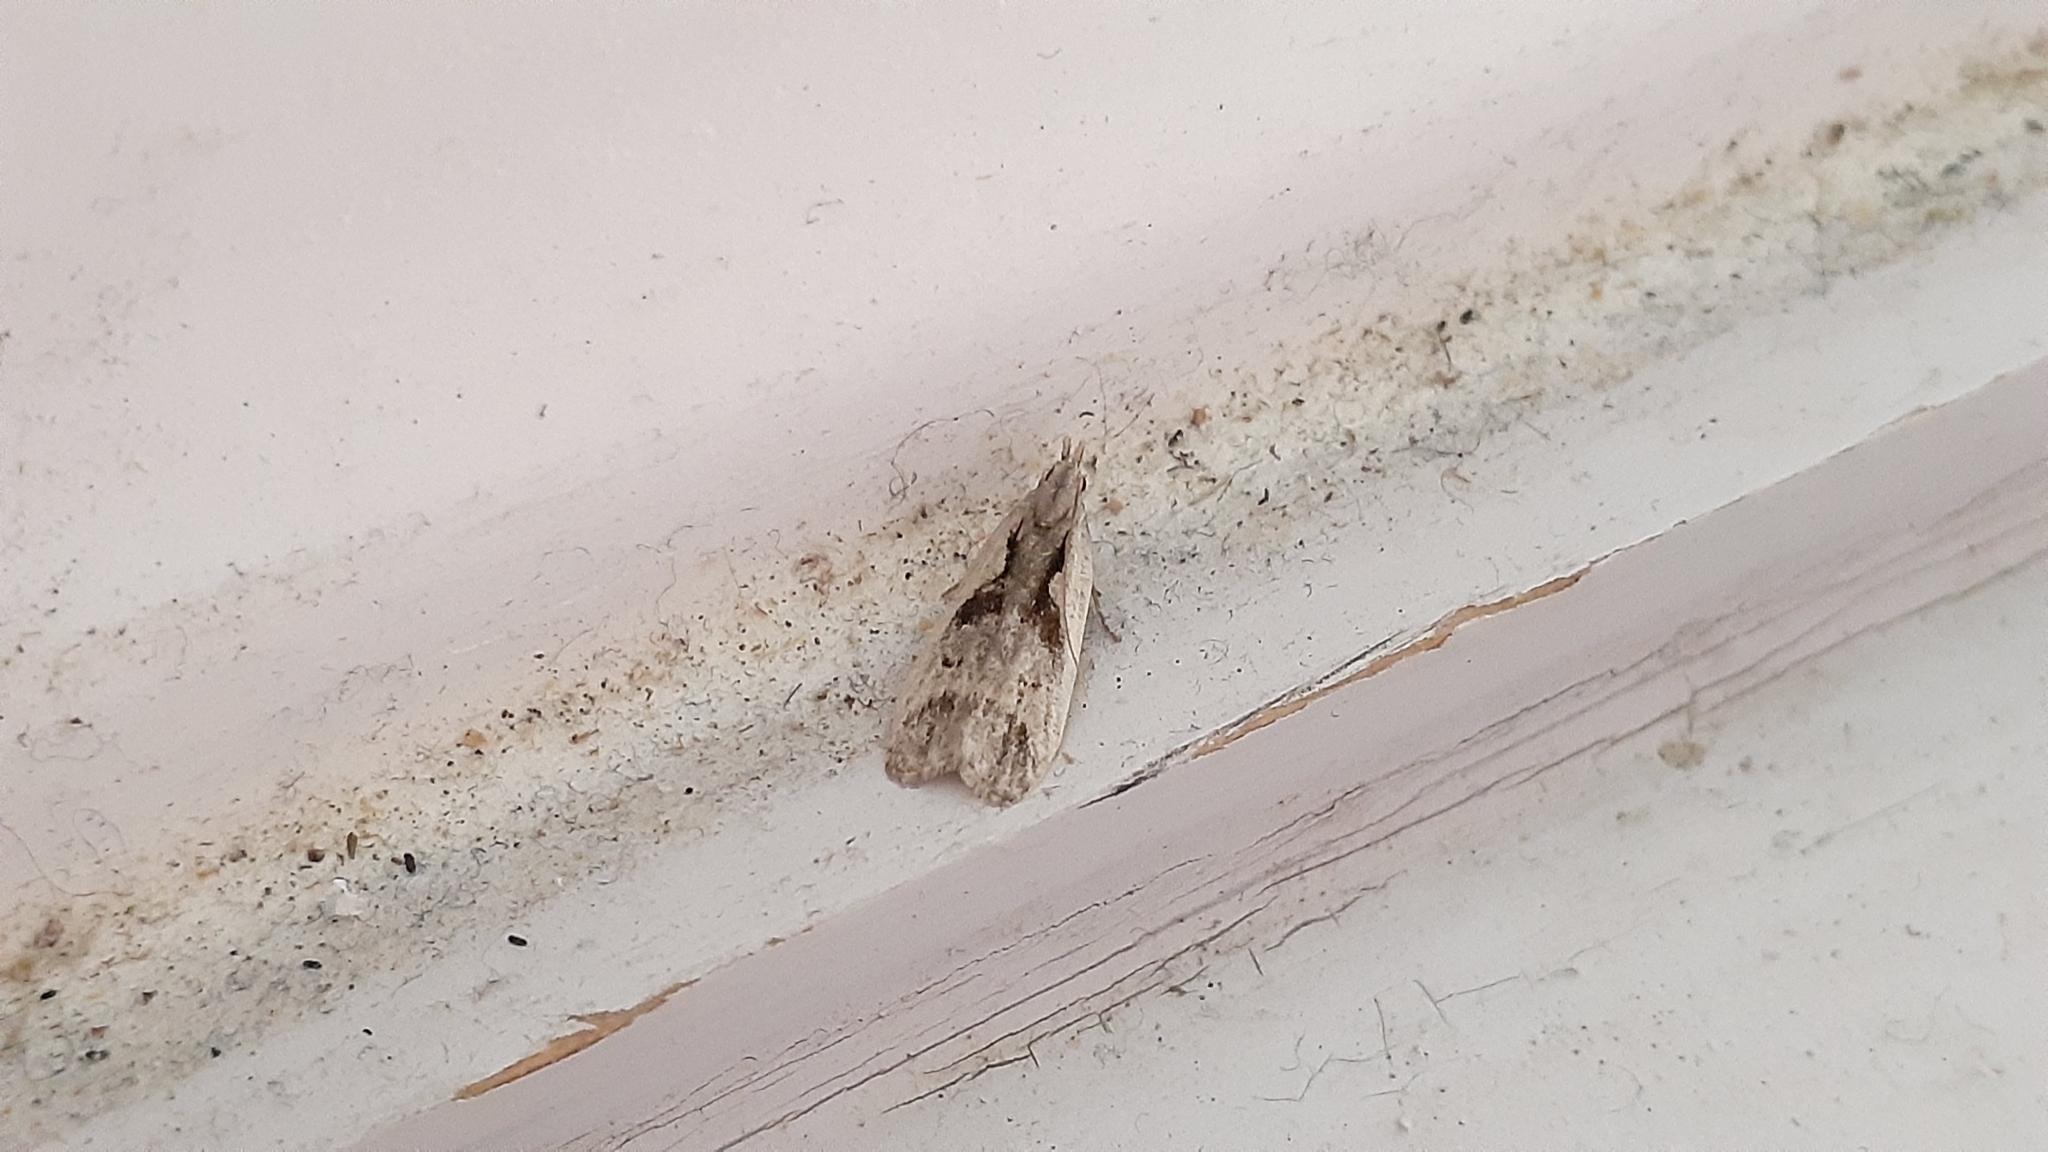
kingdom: Animalia
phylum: Arthropoda
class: Insecta
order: Lepidoptera
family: Gelechiidae
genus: Dichomeris
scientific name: Dichomeris bilobella
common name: Bilobed dichomeris moth
